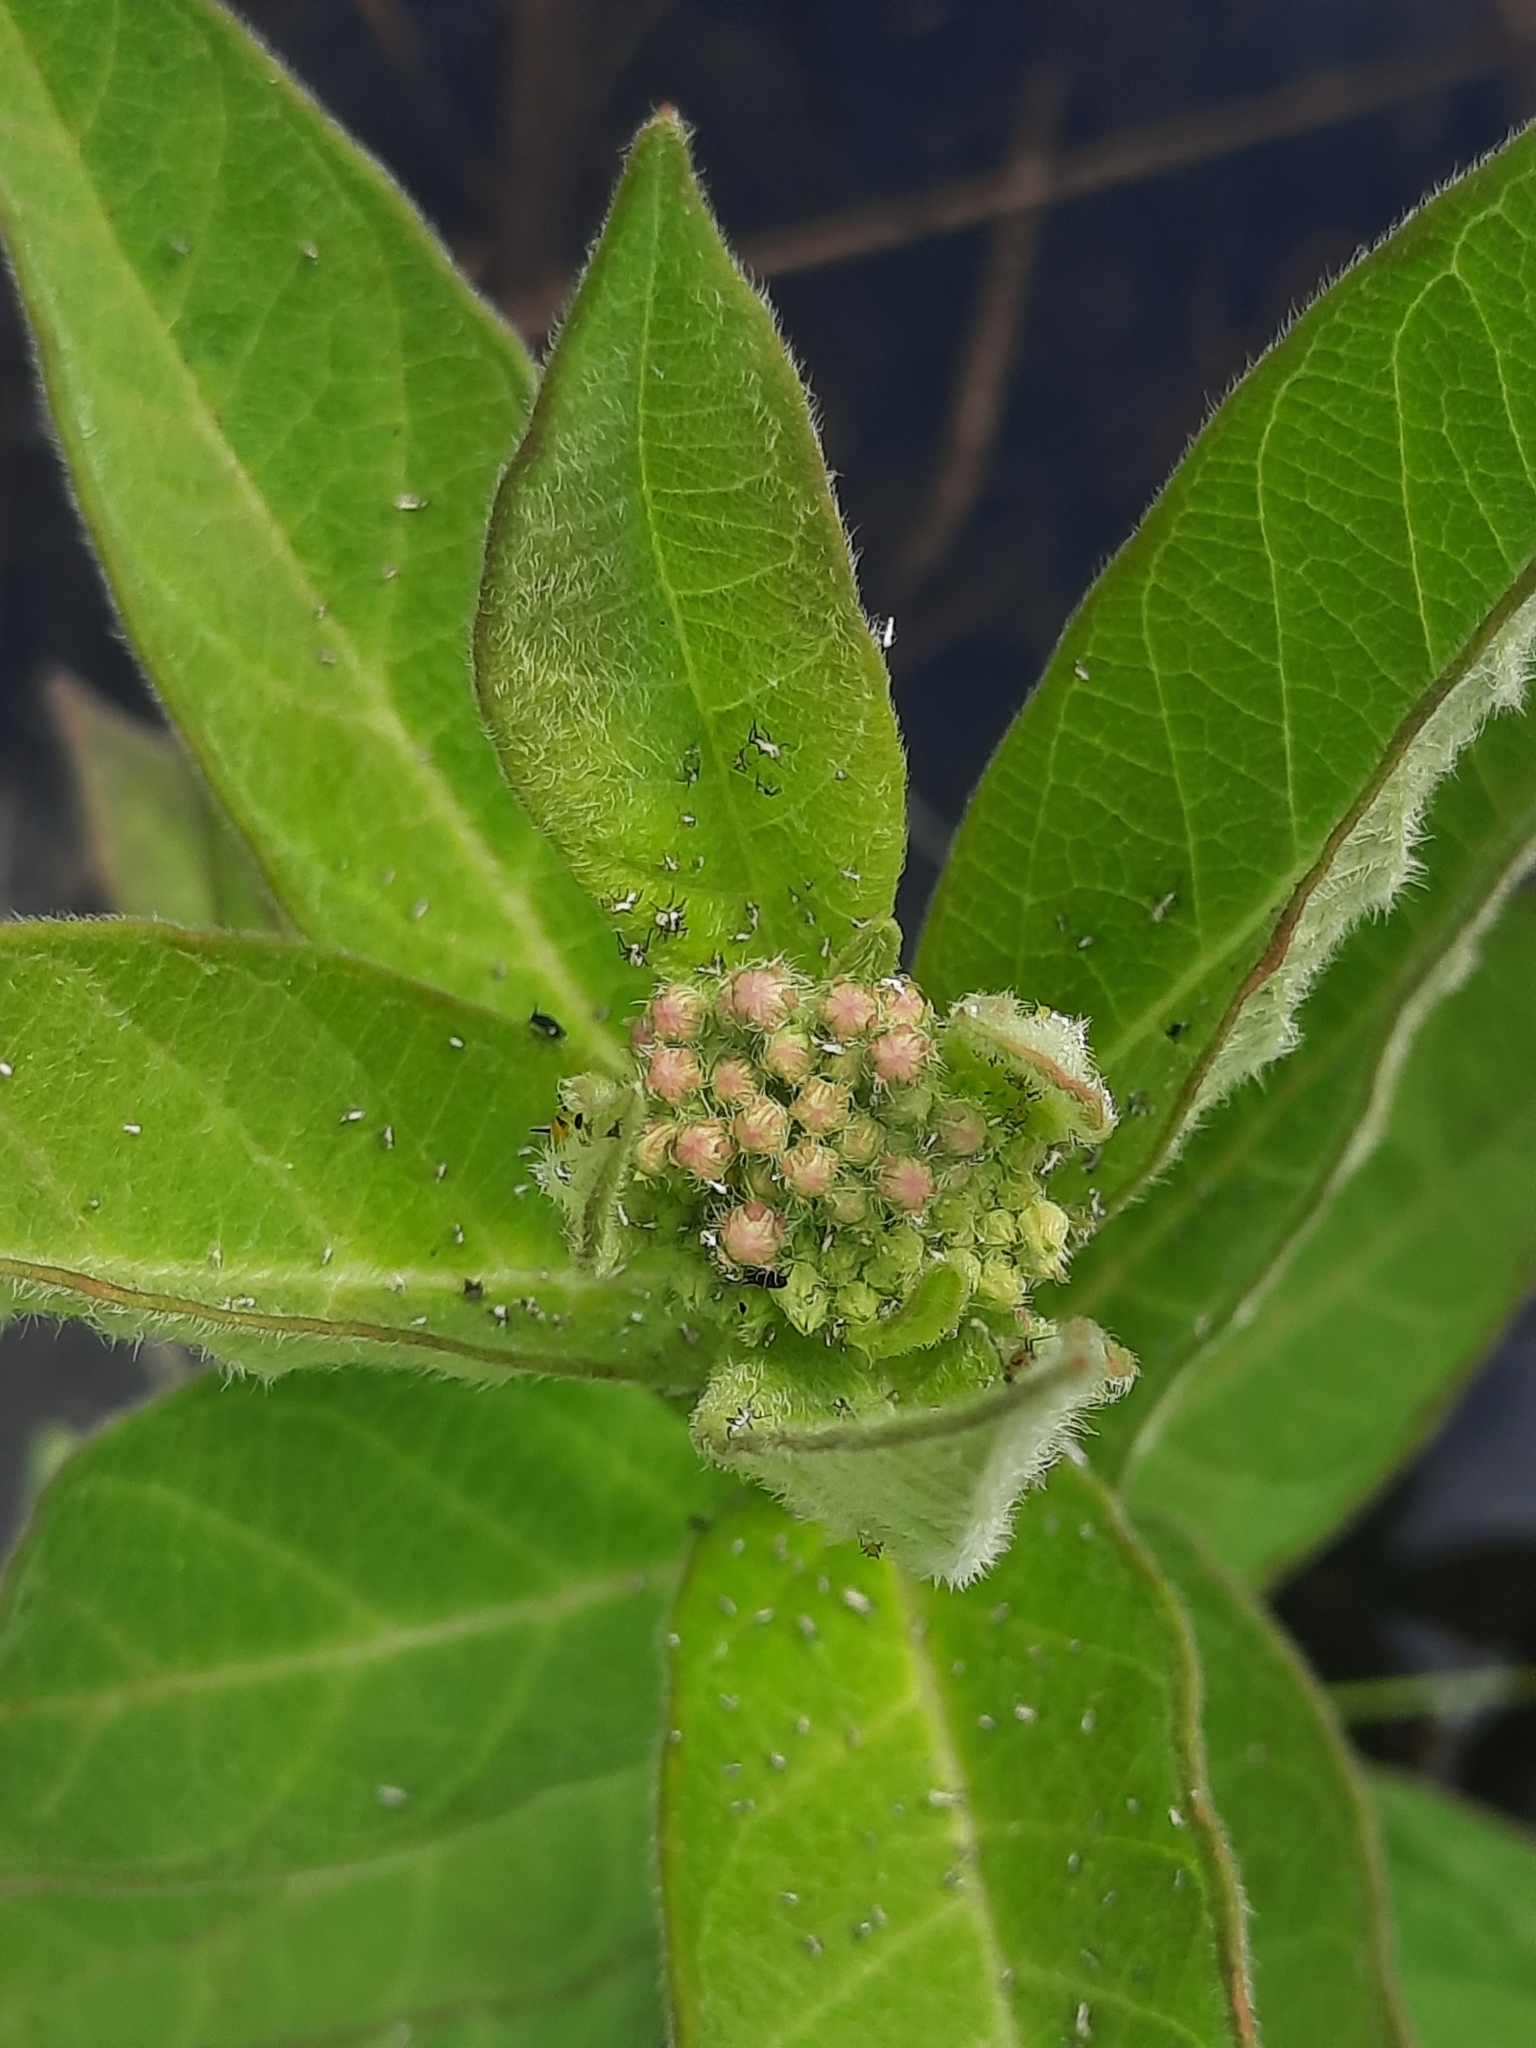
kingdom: Plantae
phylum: Tracheophyta
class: Magnoliopsida
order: Gentianales
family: Apocynaceae
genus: Asclepias
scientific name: Asclepias incarnata
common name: Swamp milkweed
